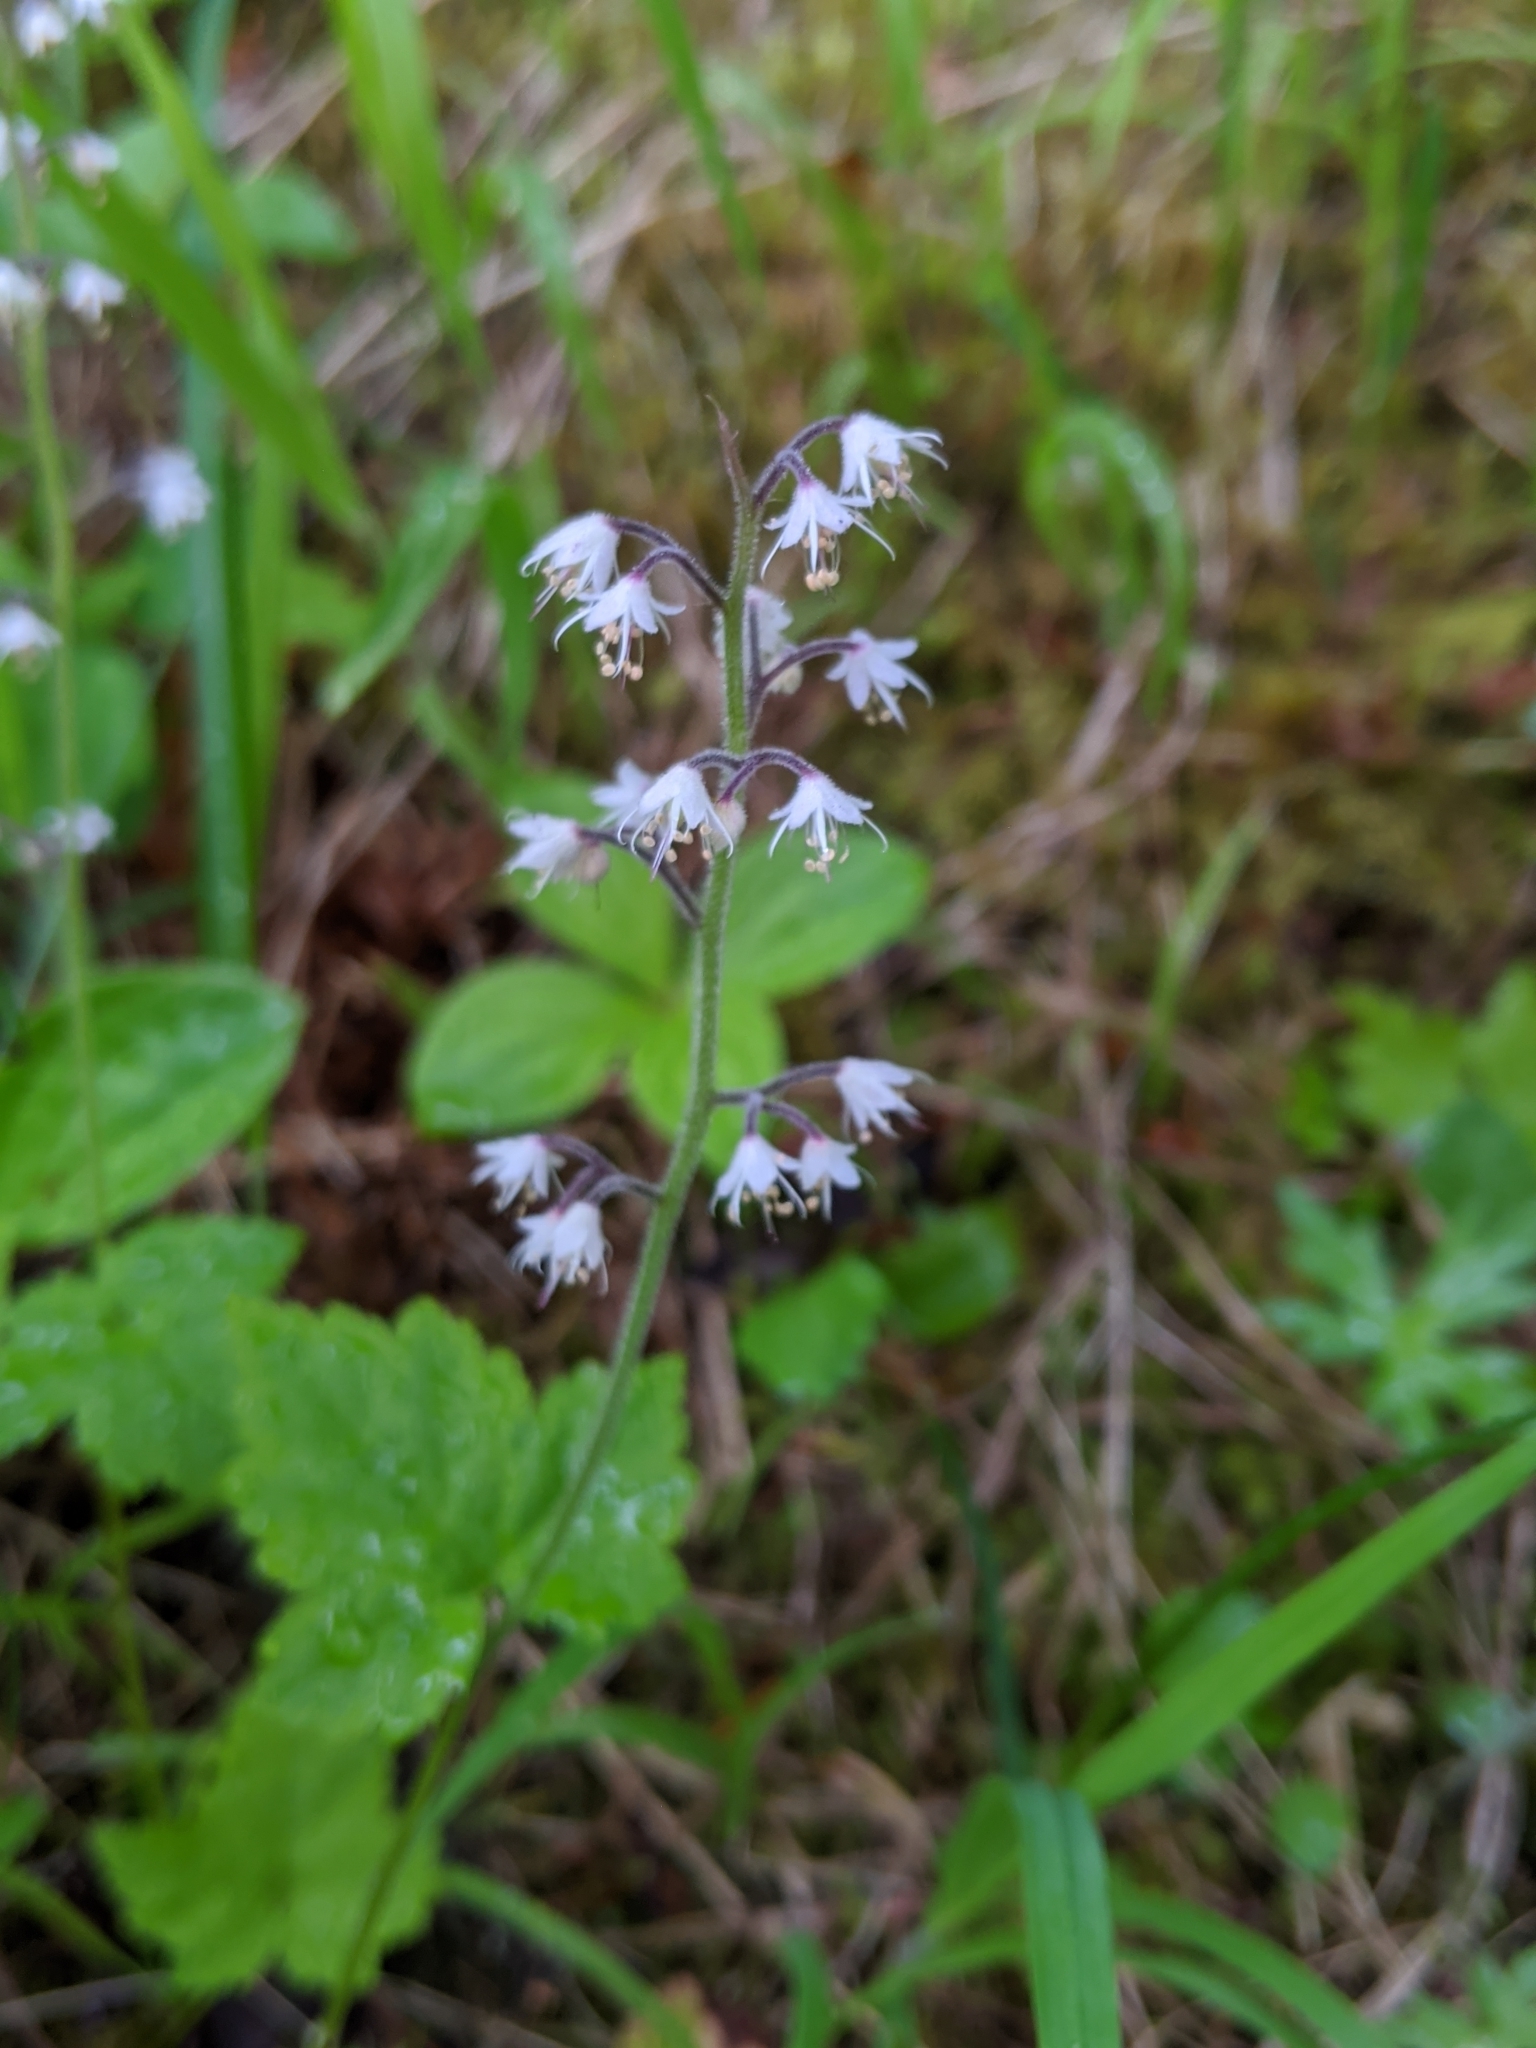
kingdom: Plantae
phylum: Tracheophyta
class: Magnoliopsida
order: Saxifragales
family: Saxifragaceae
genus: Tiarella
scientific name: Tiarella trifoliata
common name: Sugar-scoop
